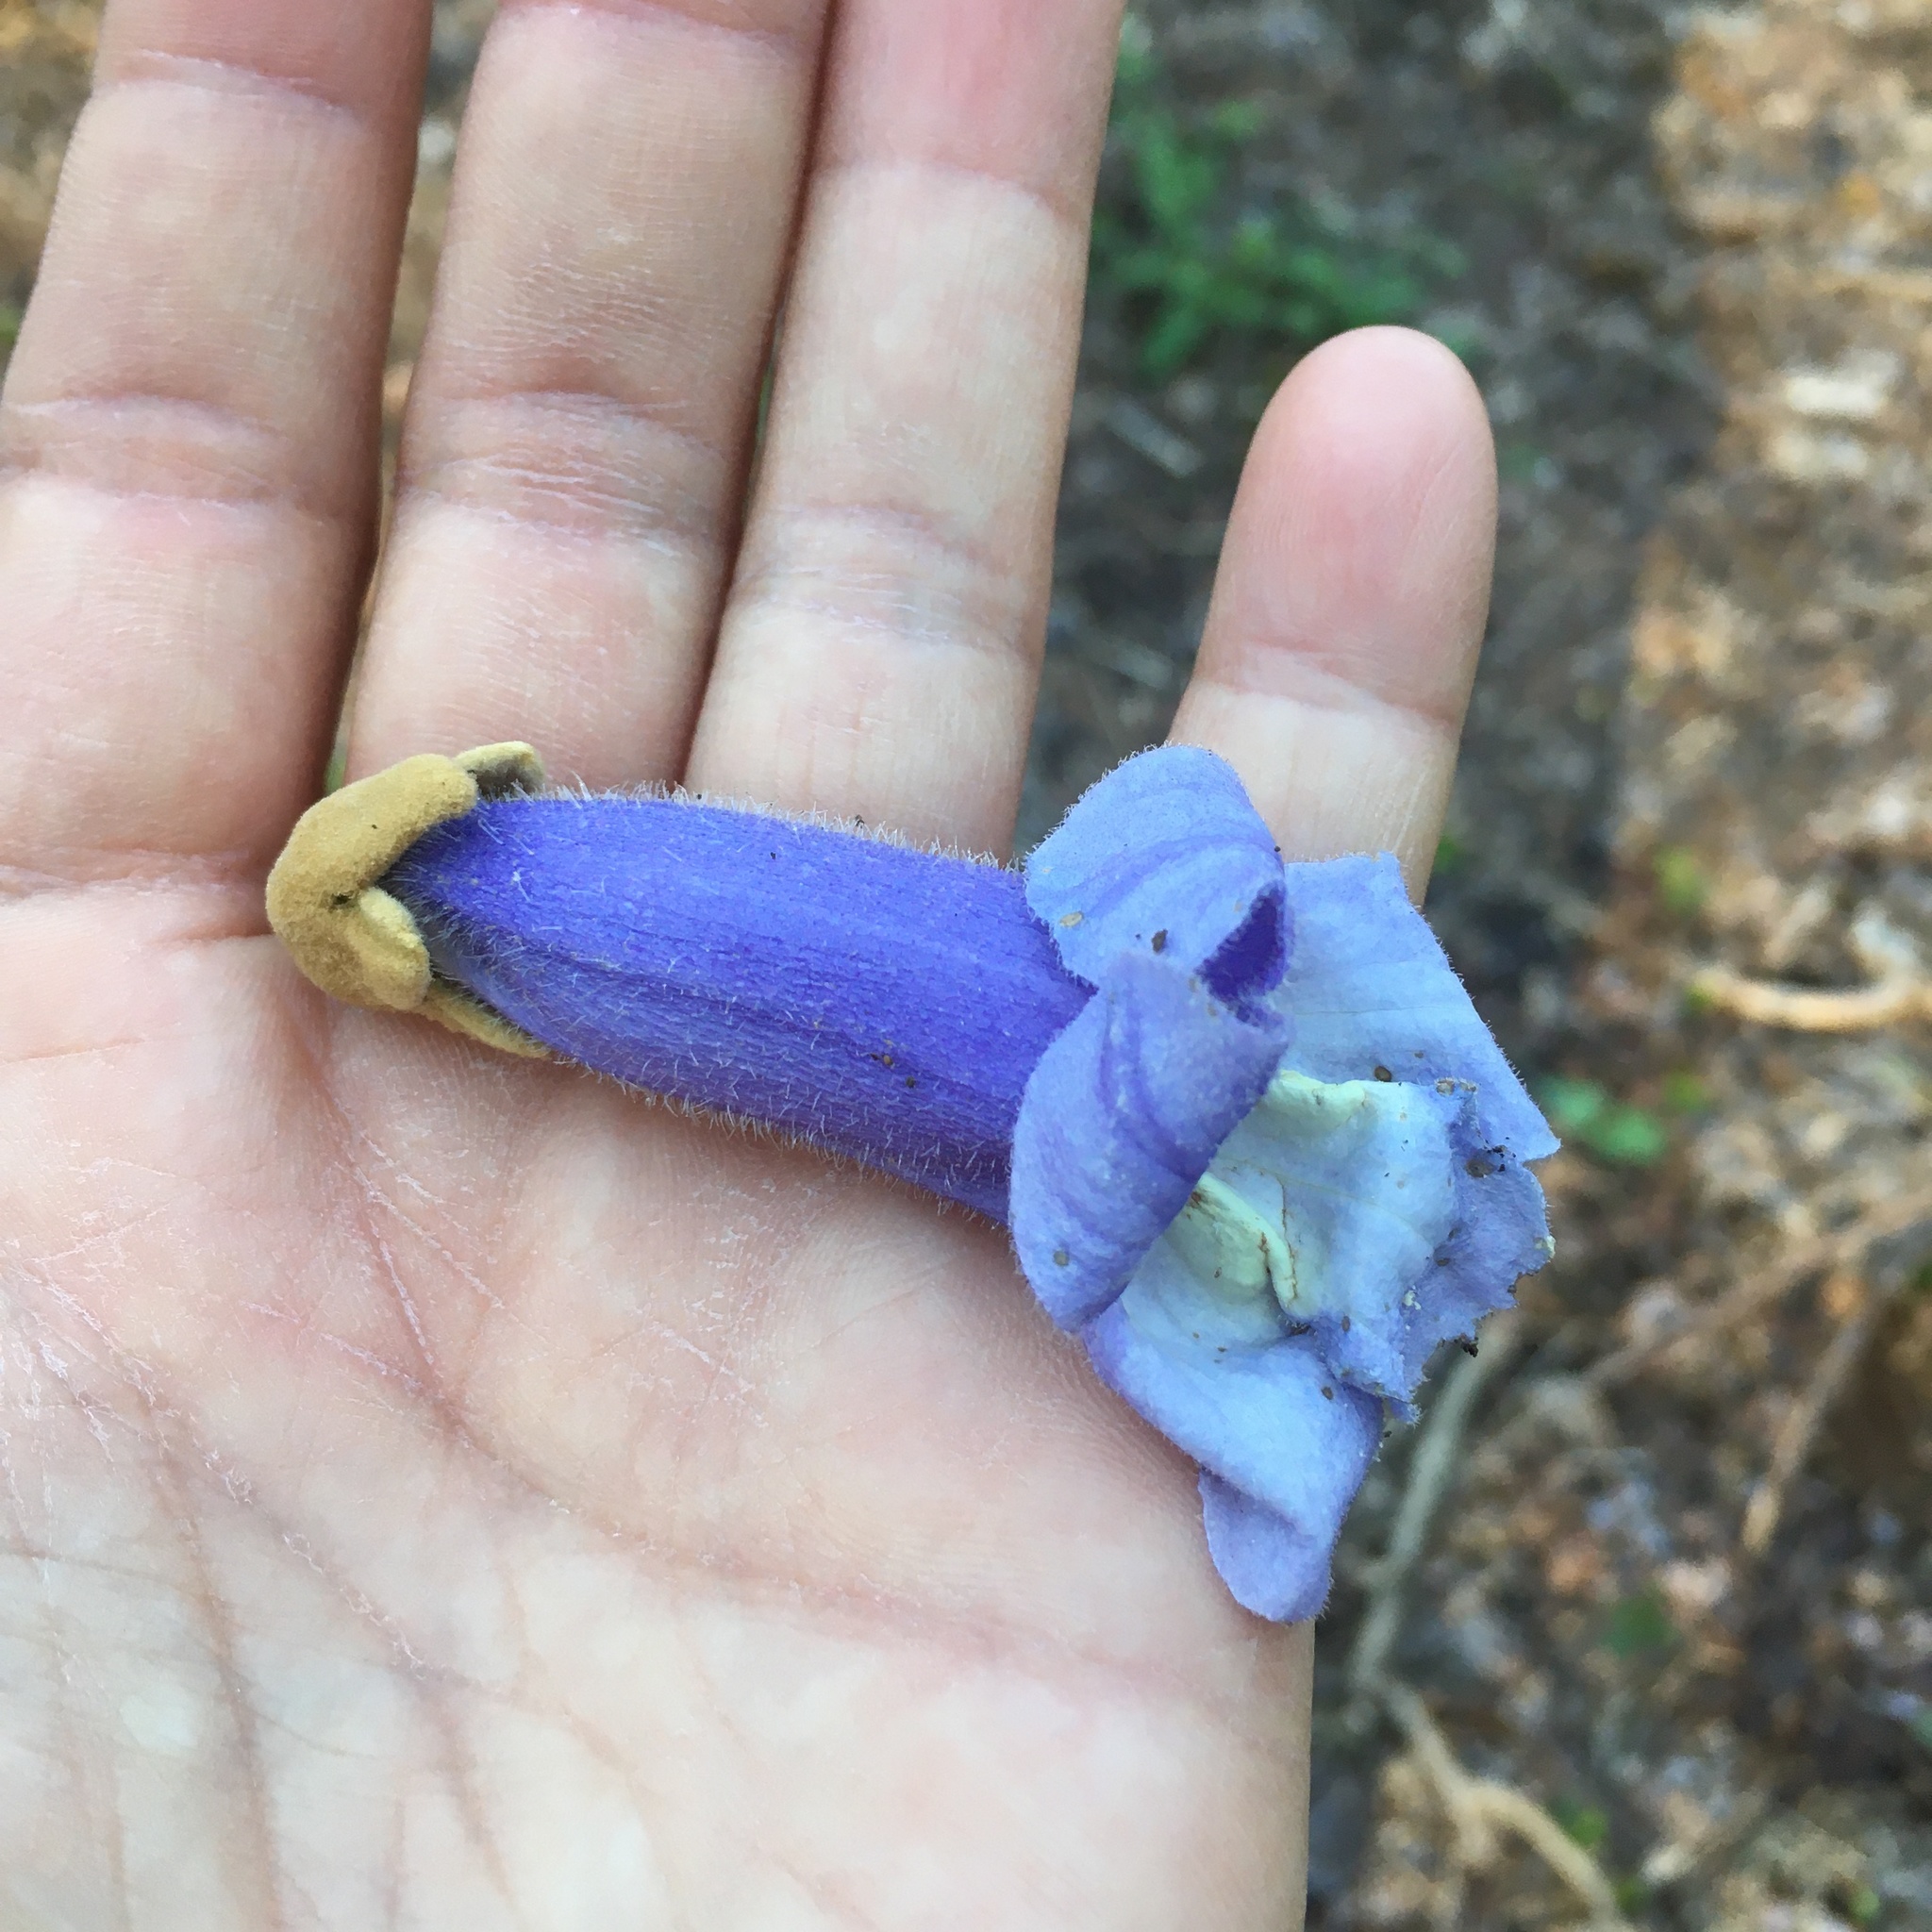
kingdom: Plantae
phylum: Tracheophyta
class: Magnoliopsida
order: Lamiales
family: Paulowniaceae
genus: Paulownia
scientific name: Paulownia tomentosa
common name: Foxglove-tree
